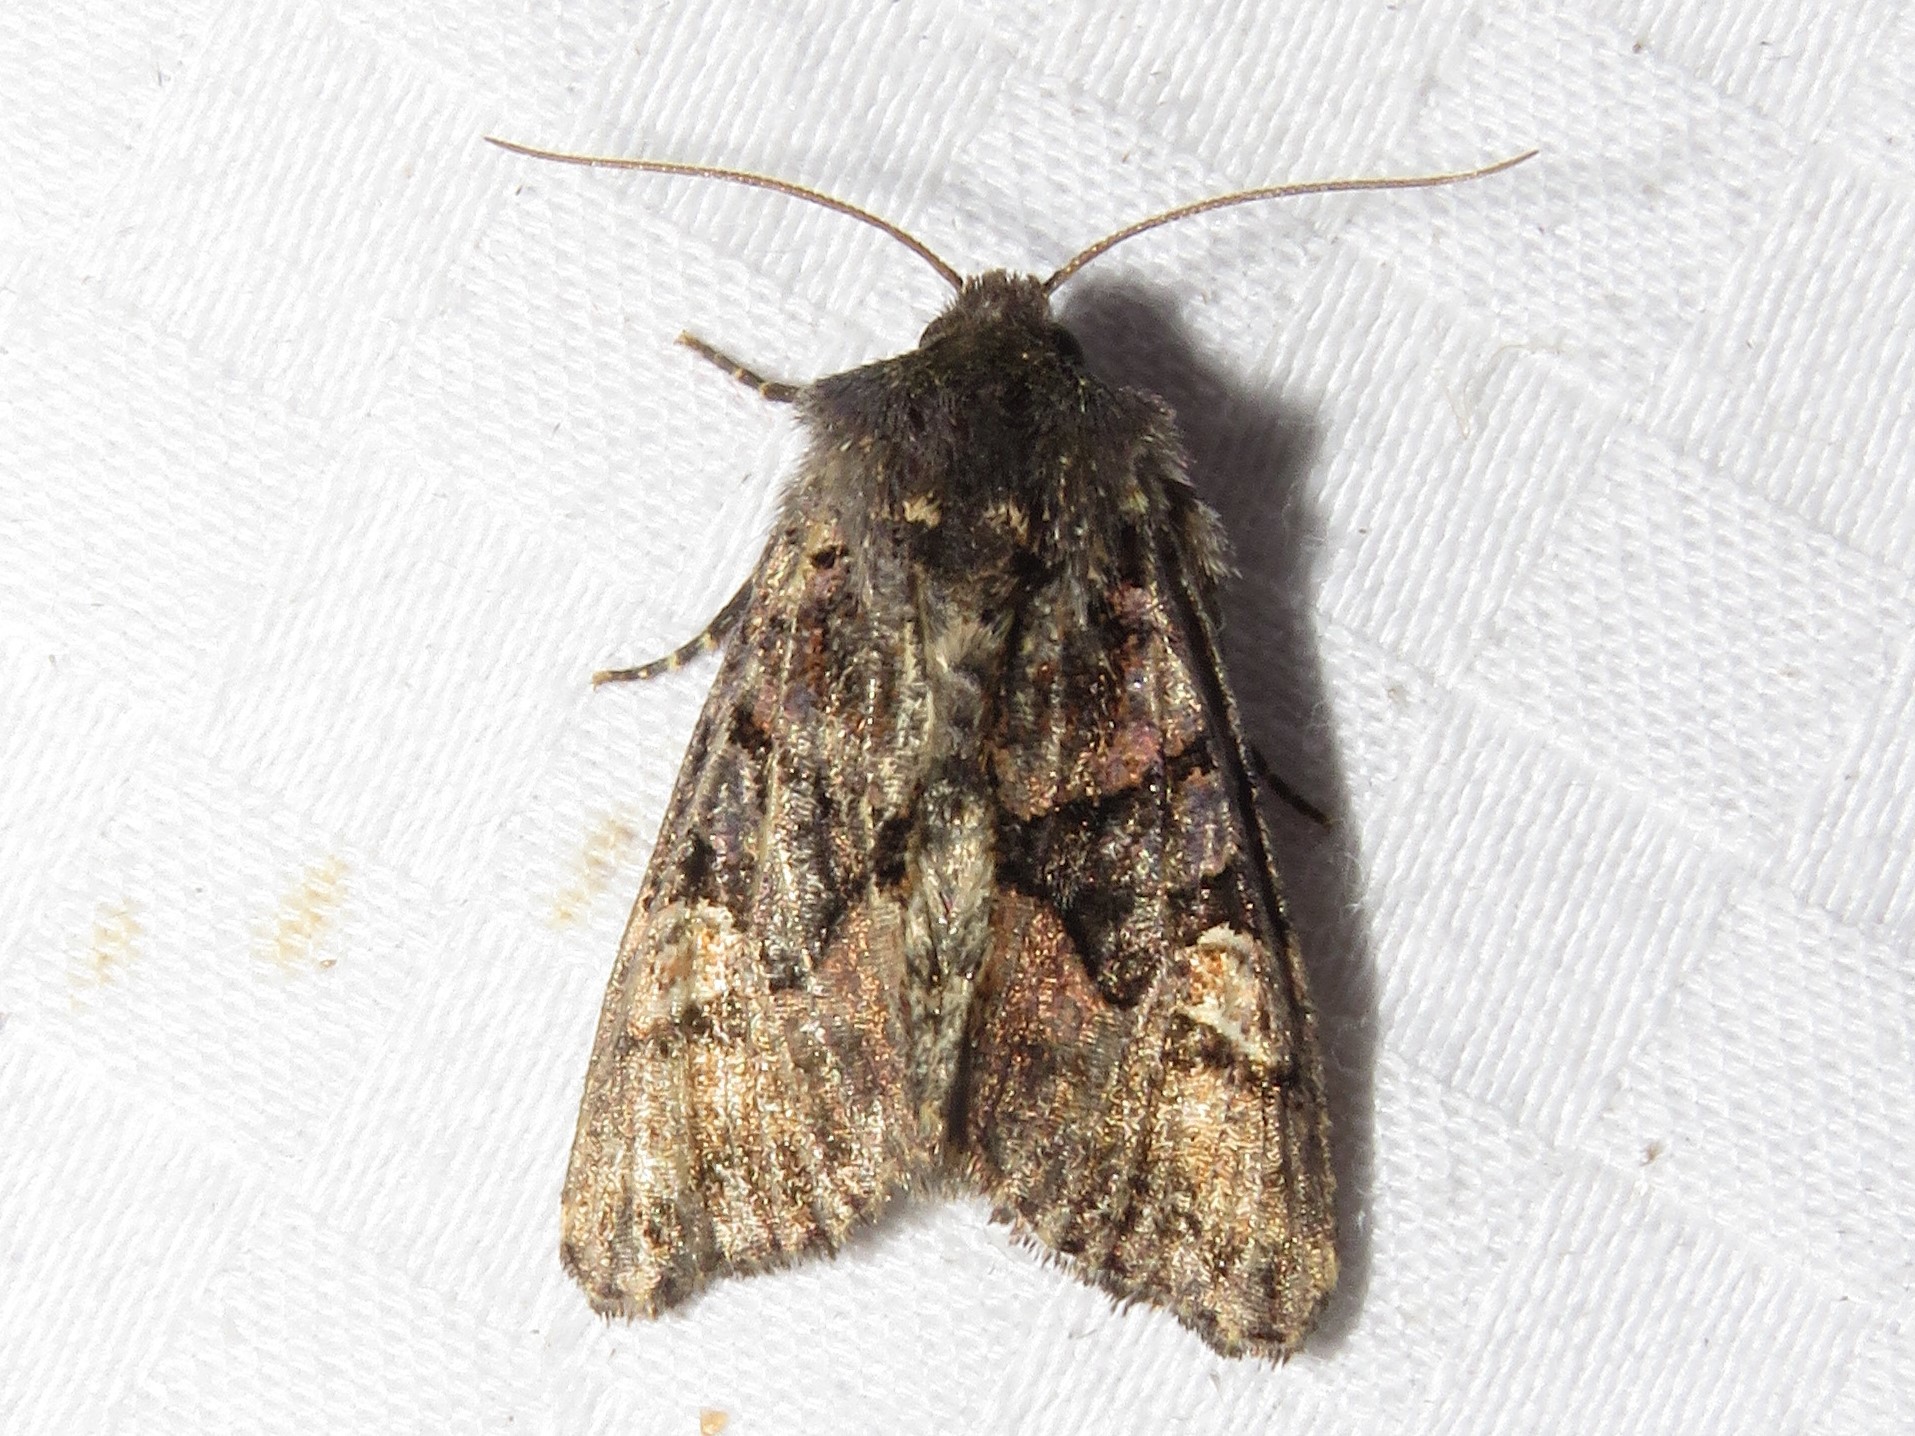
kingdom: Animalia
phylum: Arthropoda
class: Insecta
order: Lepidoptera
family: Noctuidae
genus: Euplexia
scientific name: Euplexia benesimilis
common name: American angle shades
